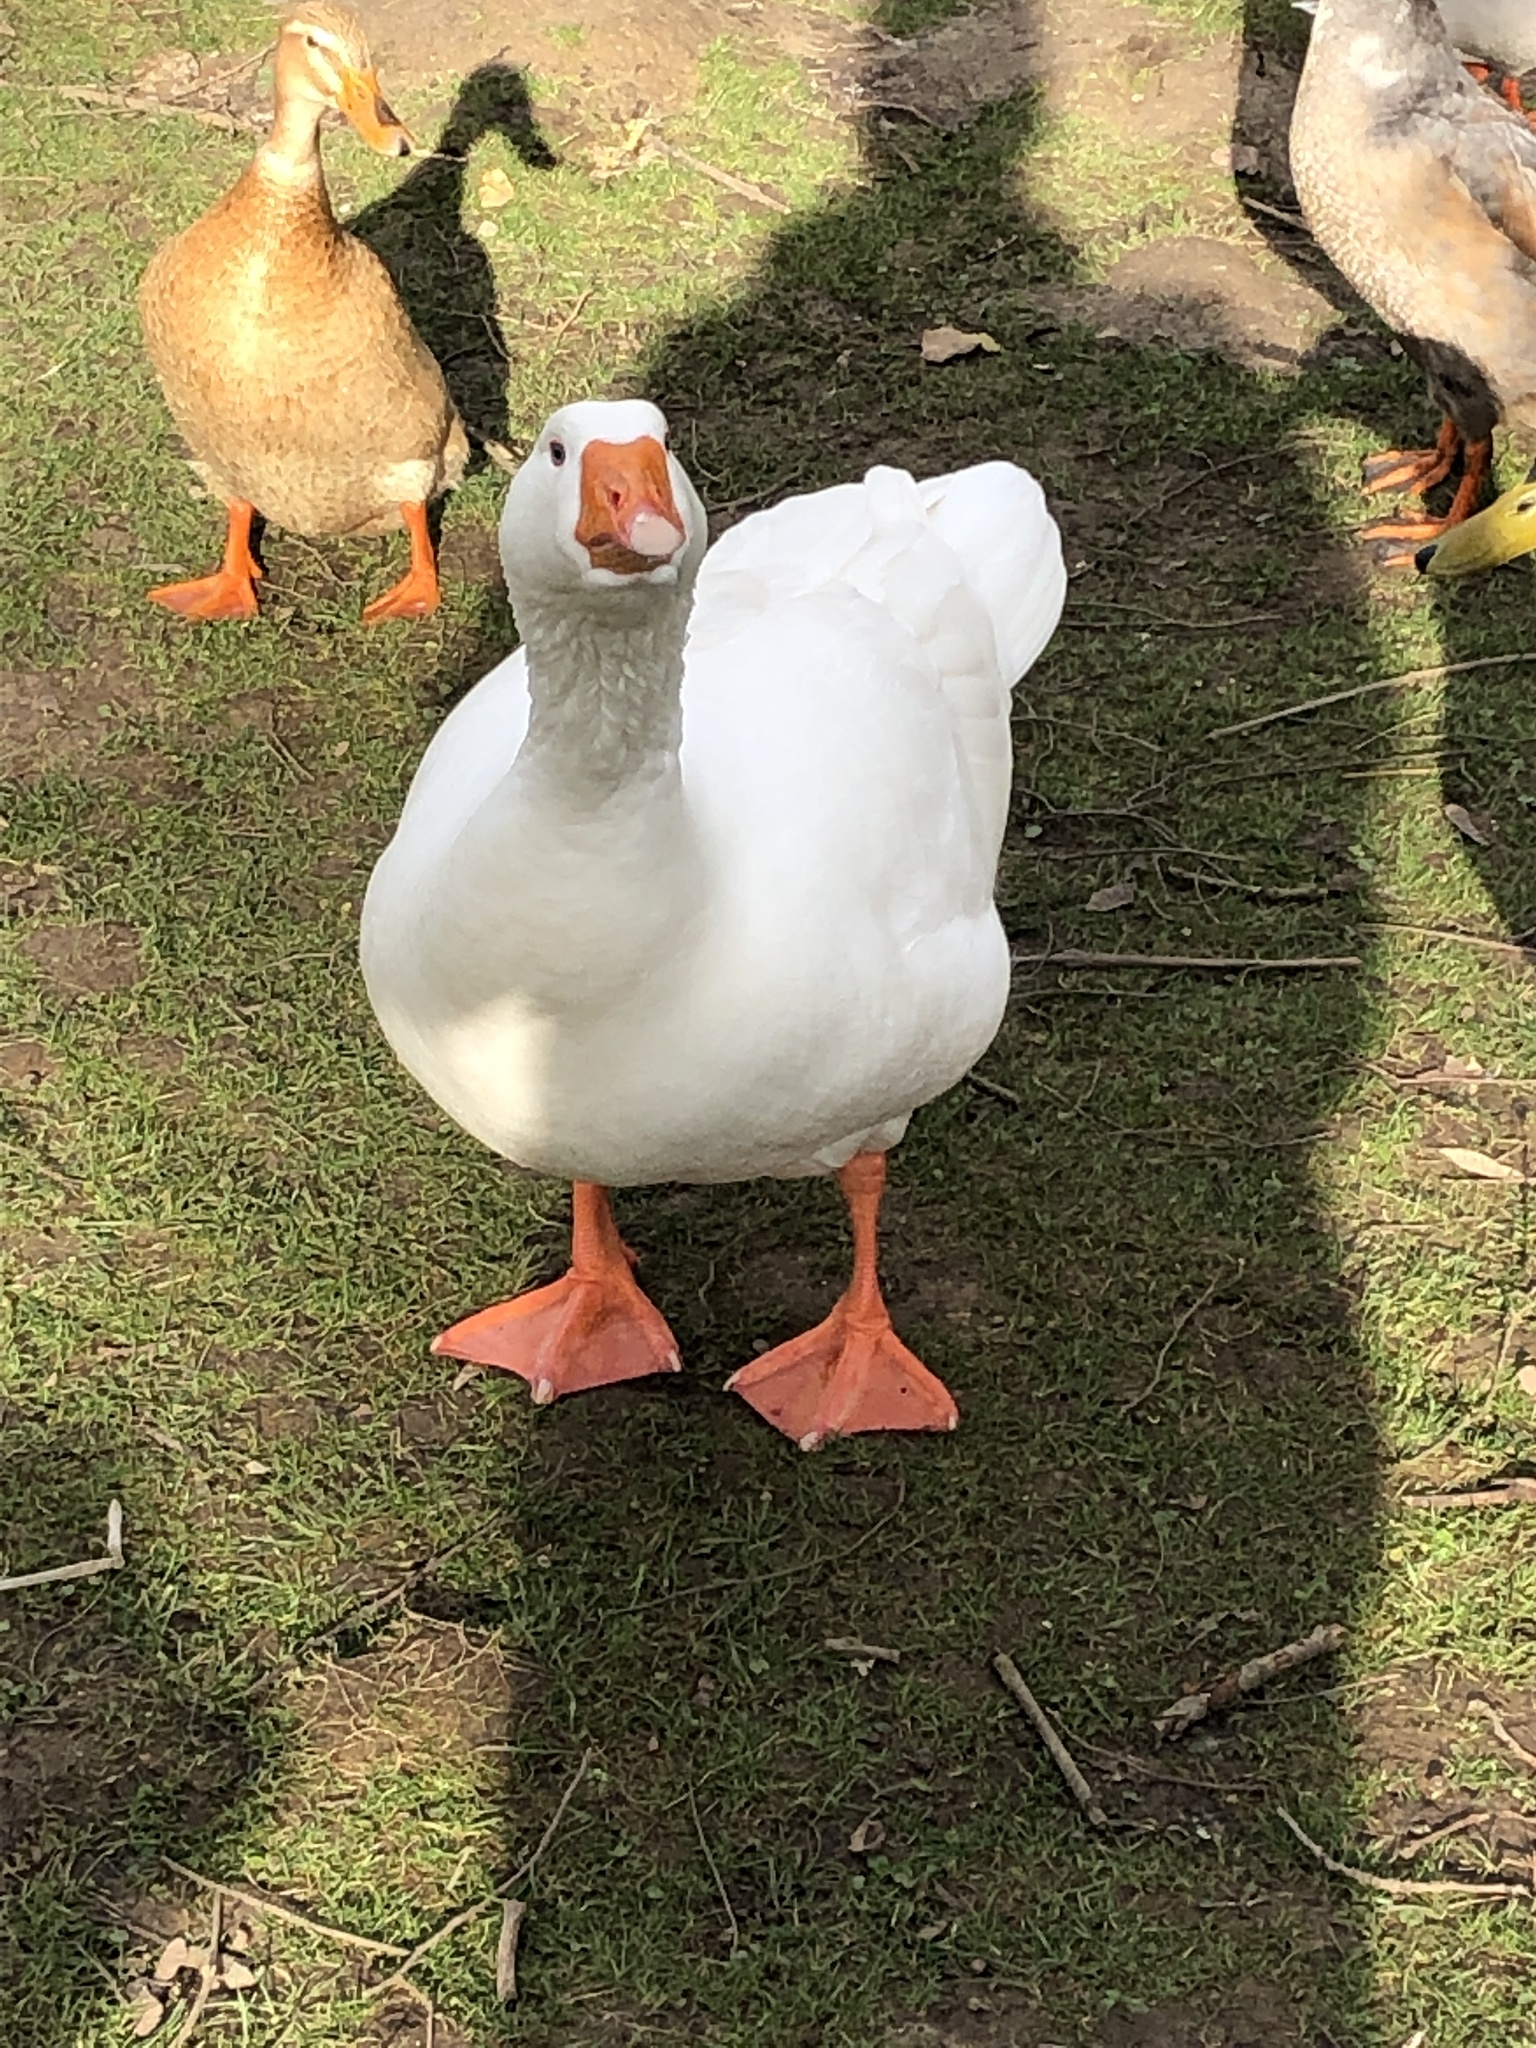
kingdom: Animalia
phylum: Chordata
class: Aves
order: Anseriformes
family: Anatidae
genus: Anser
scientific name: Anser anser
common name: Greylag goose
